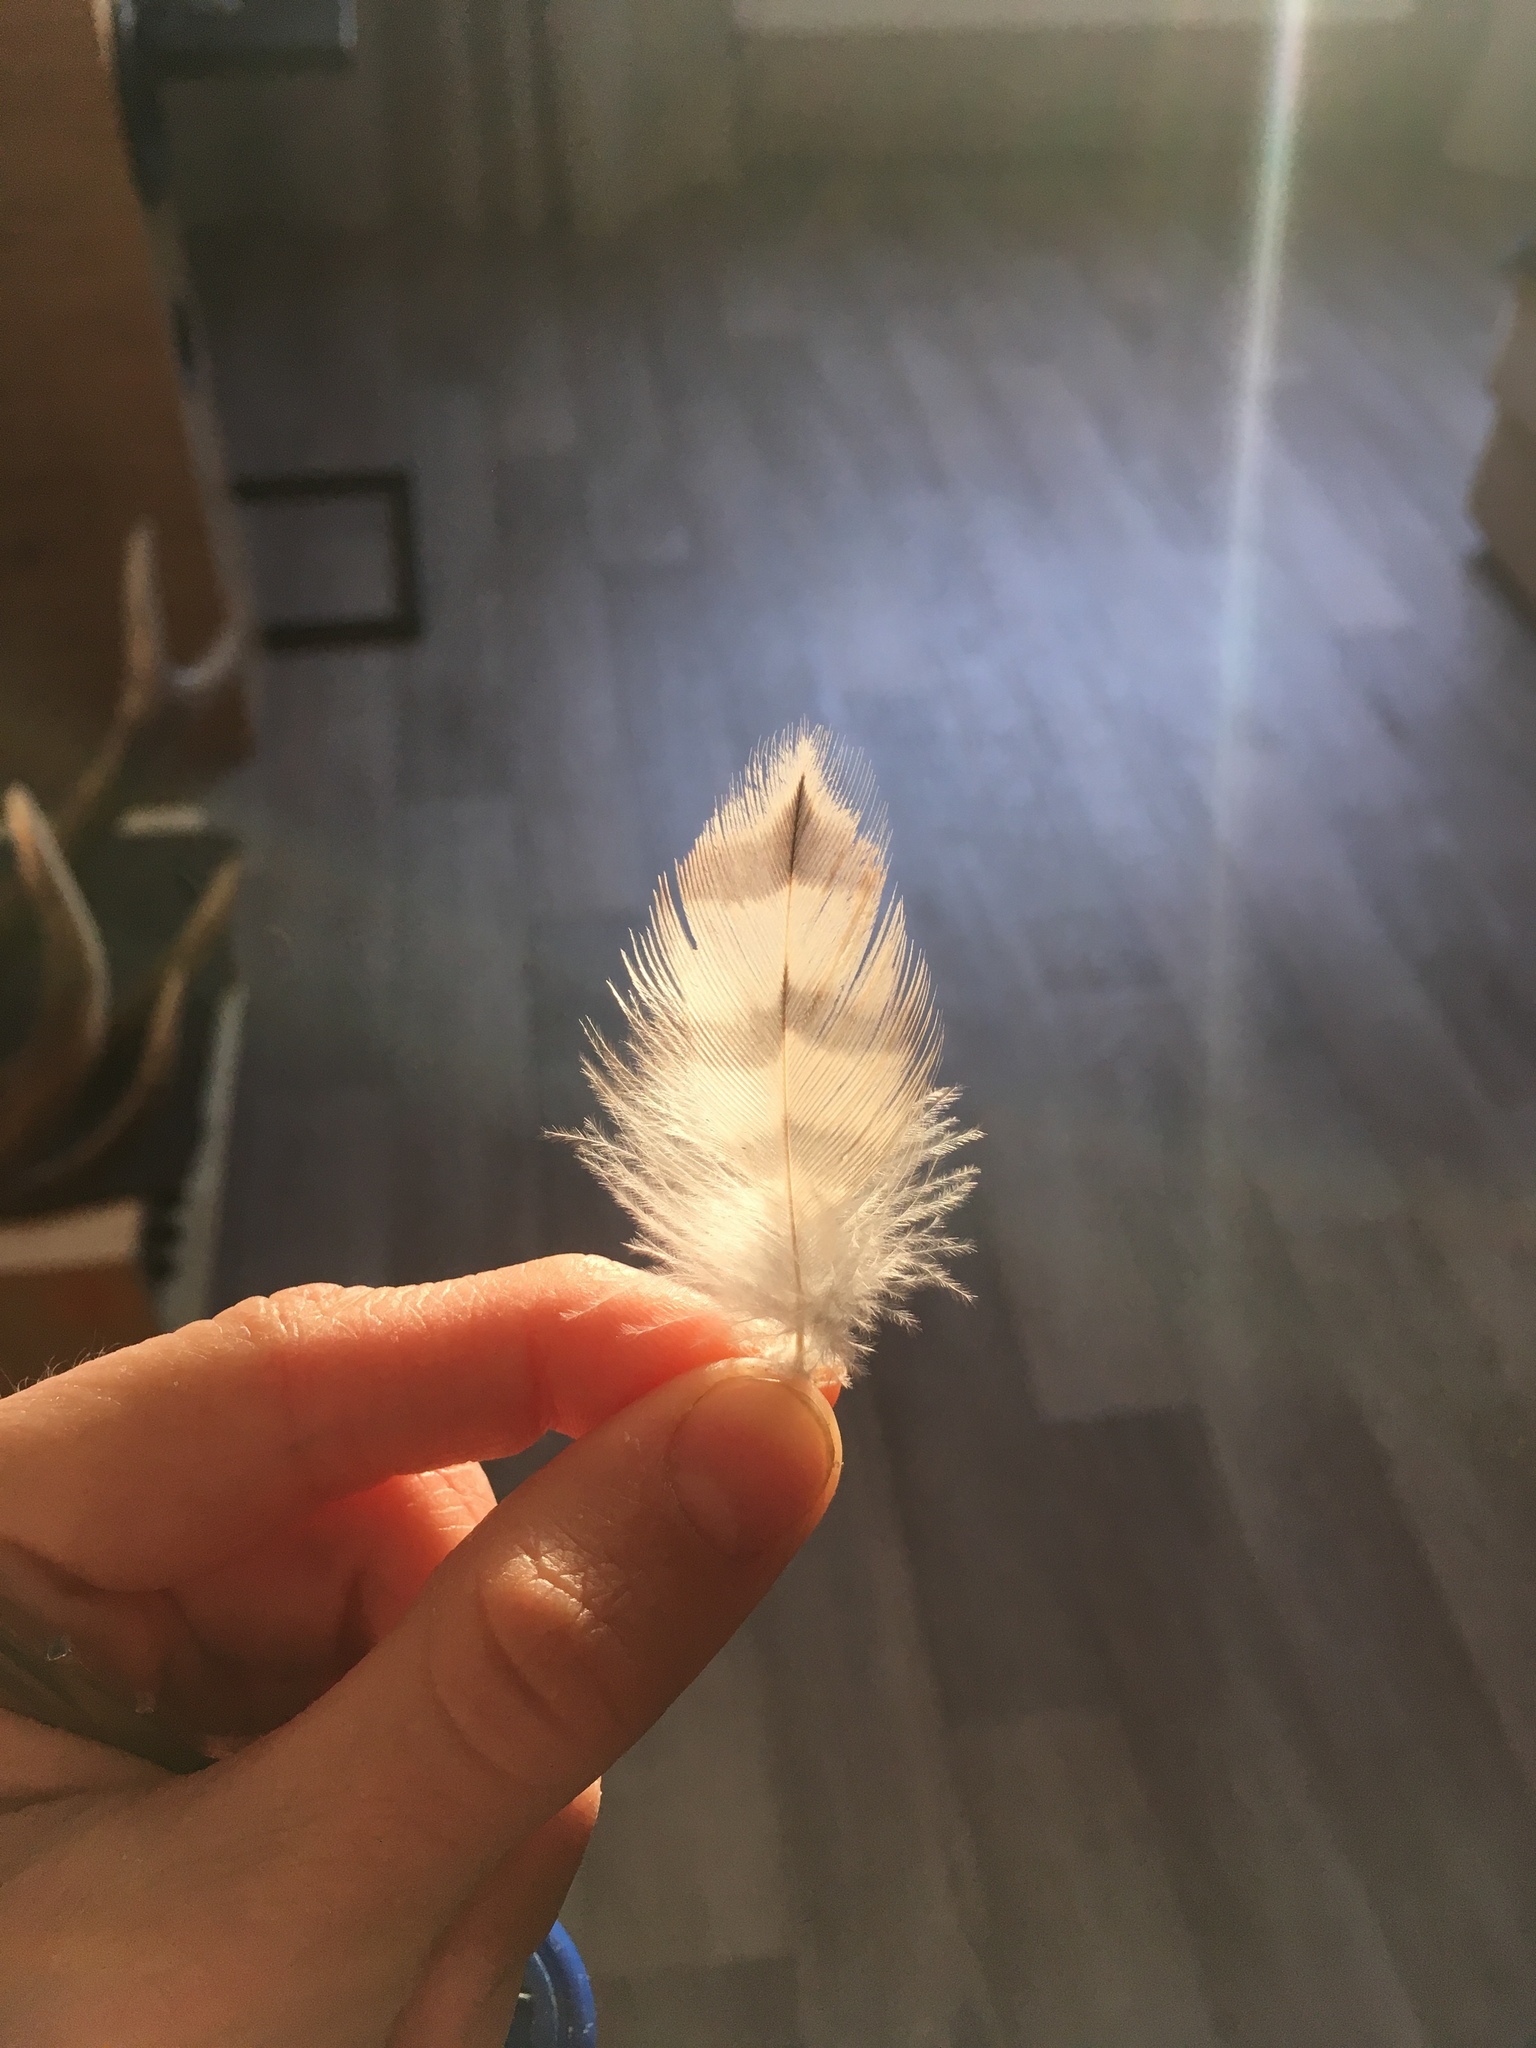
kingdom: Animalia
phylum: Chordata
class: Aves
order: Falconiformes
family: Falconidae
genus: Falco
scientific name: Falco tinnunculus
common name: Common kestrel
